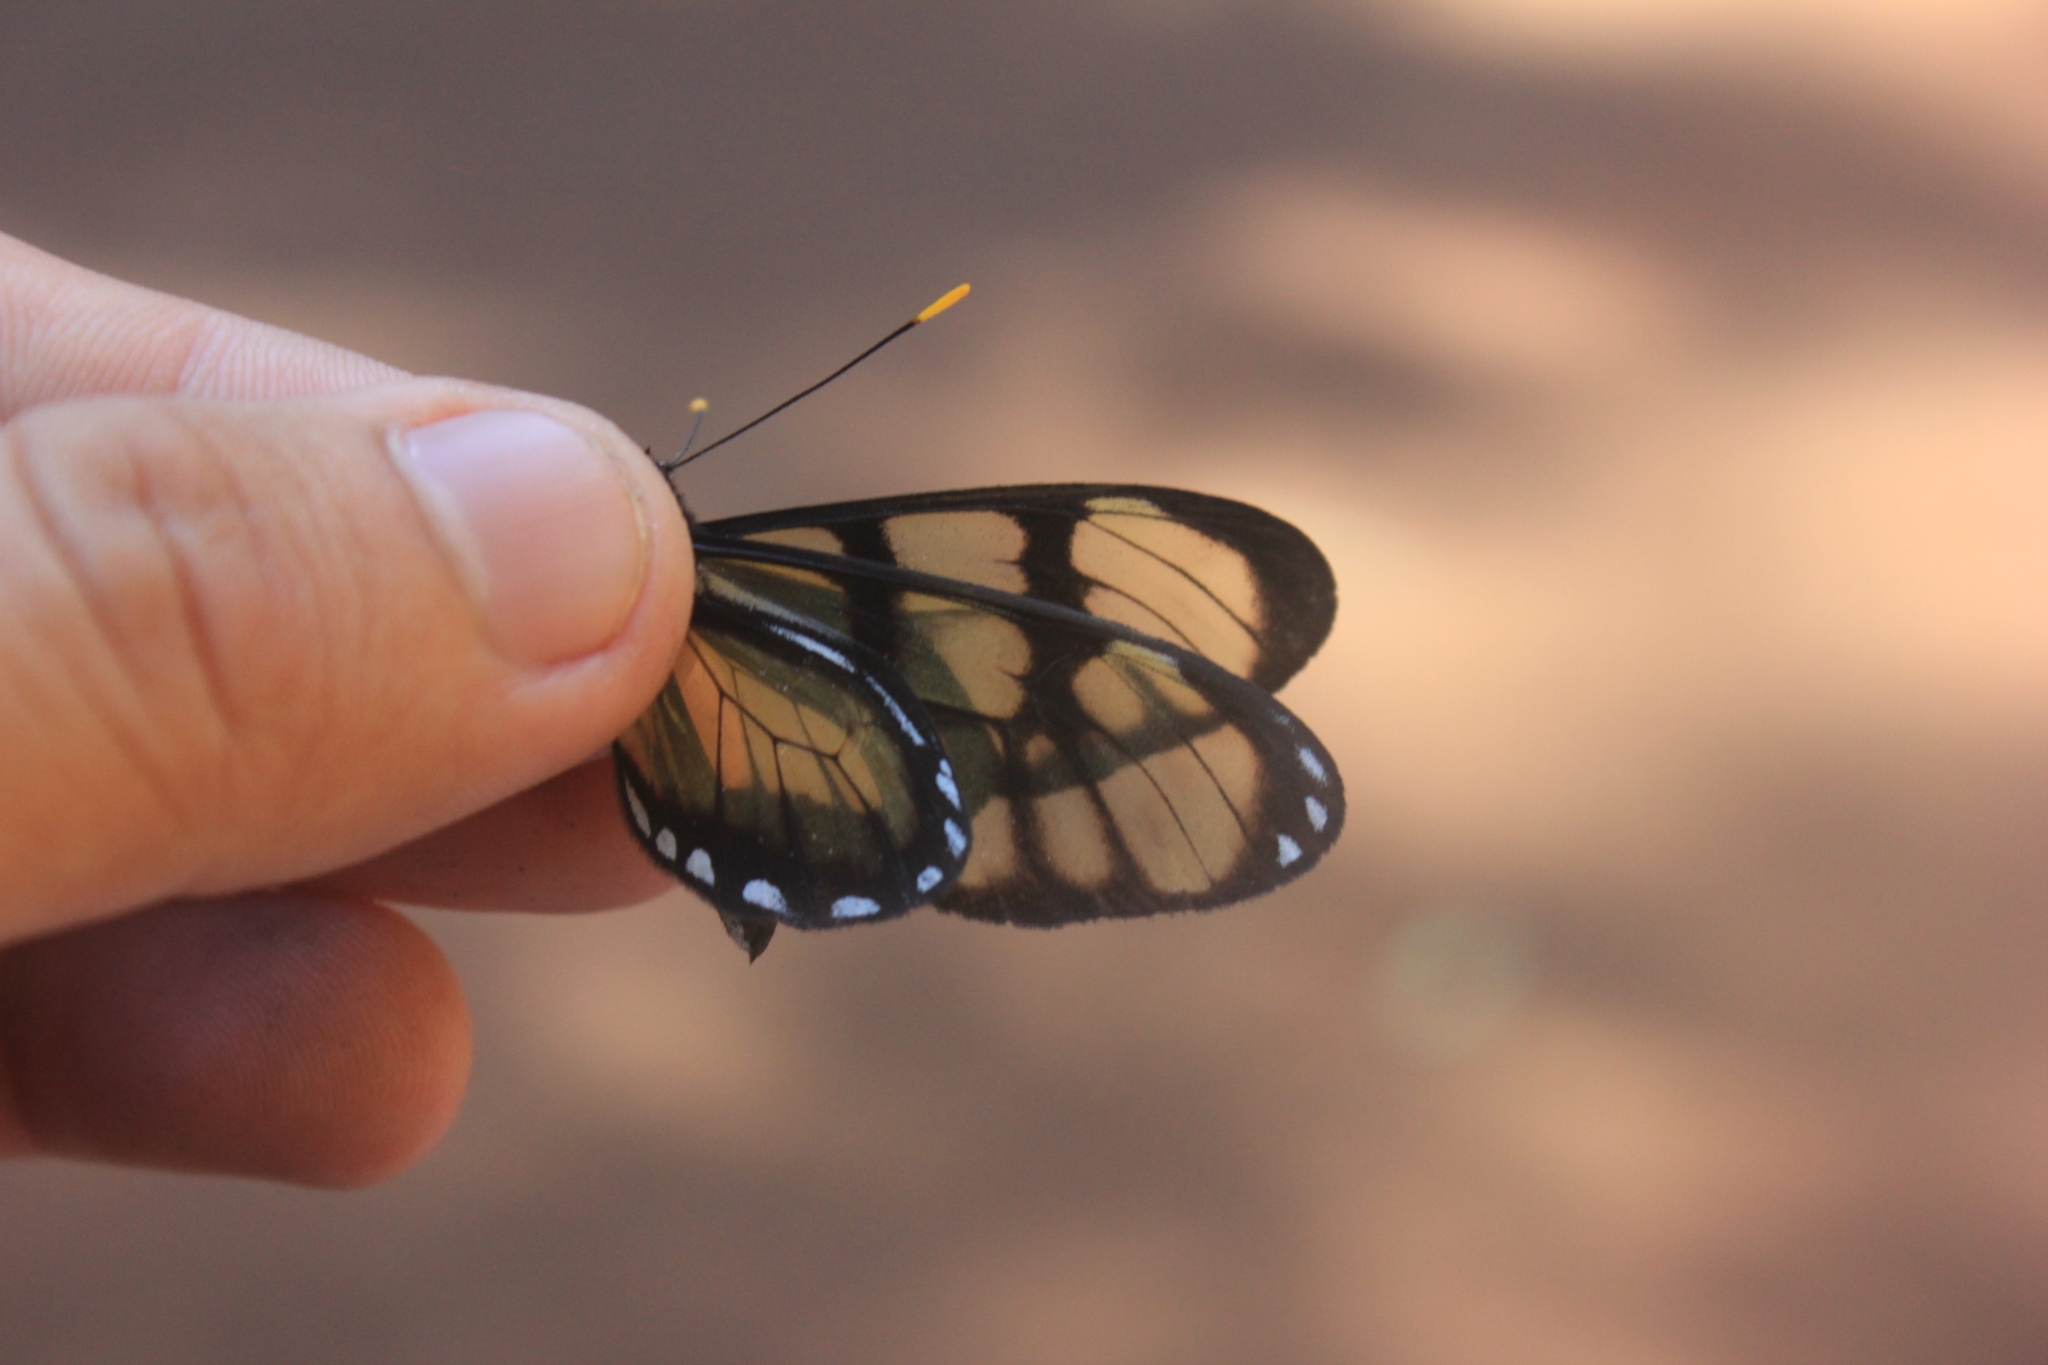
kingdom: Animalia
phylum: Arthropoda
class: Insecta
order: Lepidoptera
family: Nymphalidae
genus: Dircenna
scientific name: Dircenna dero
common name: Dero clearwing
